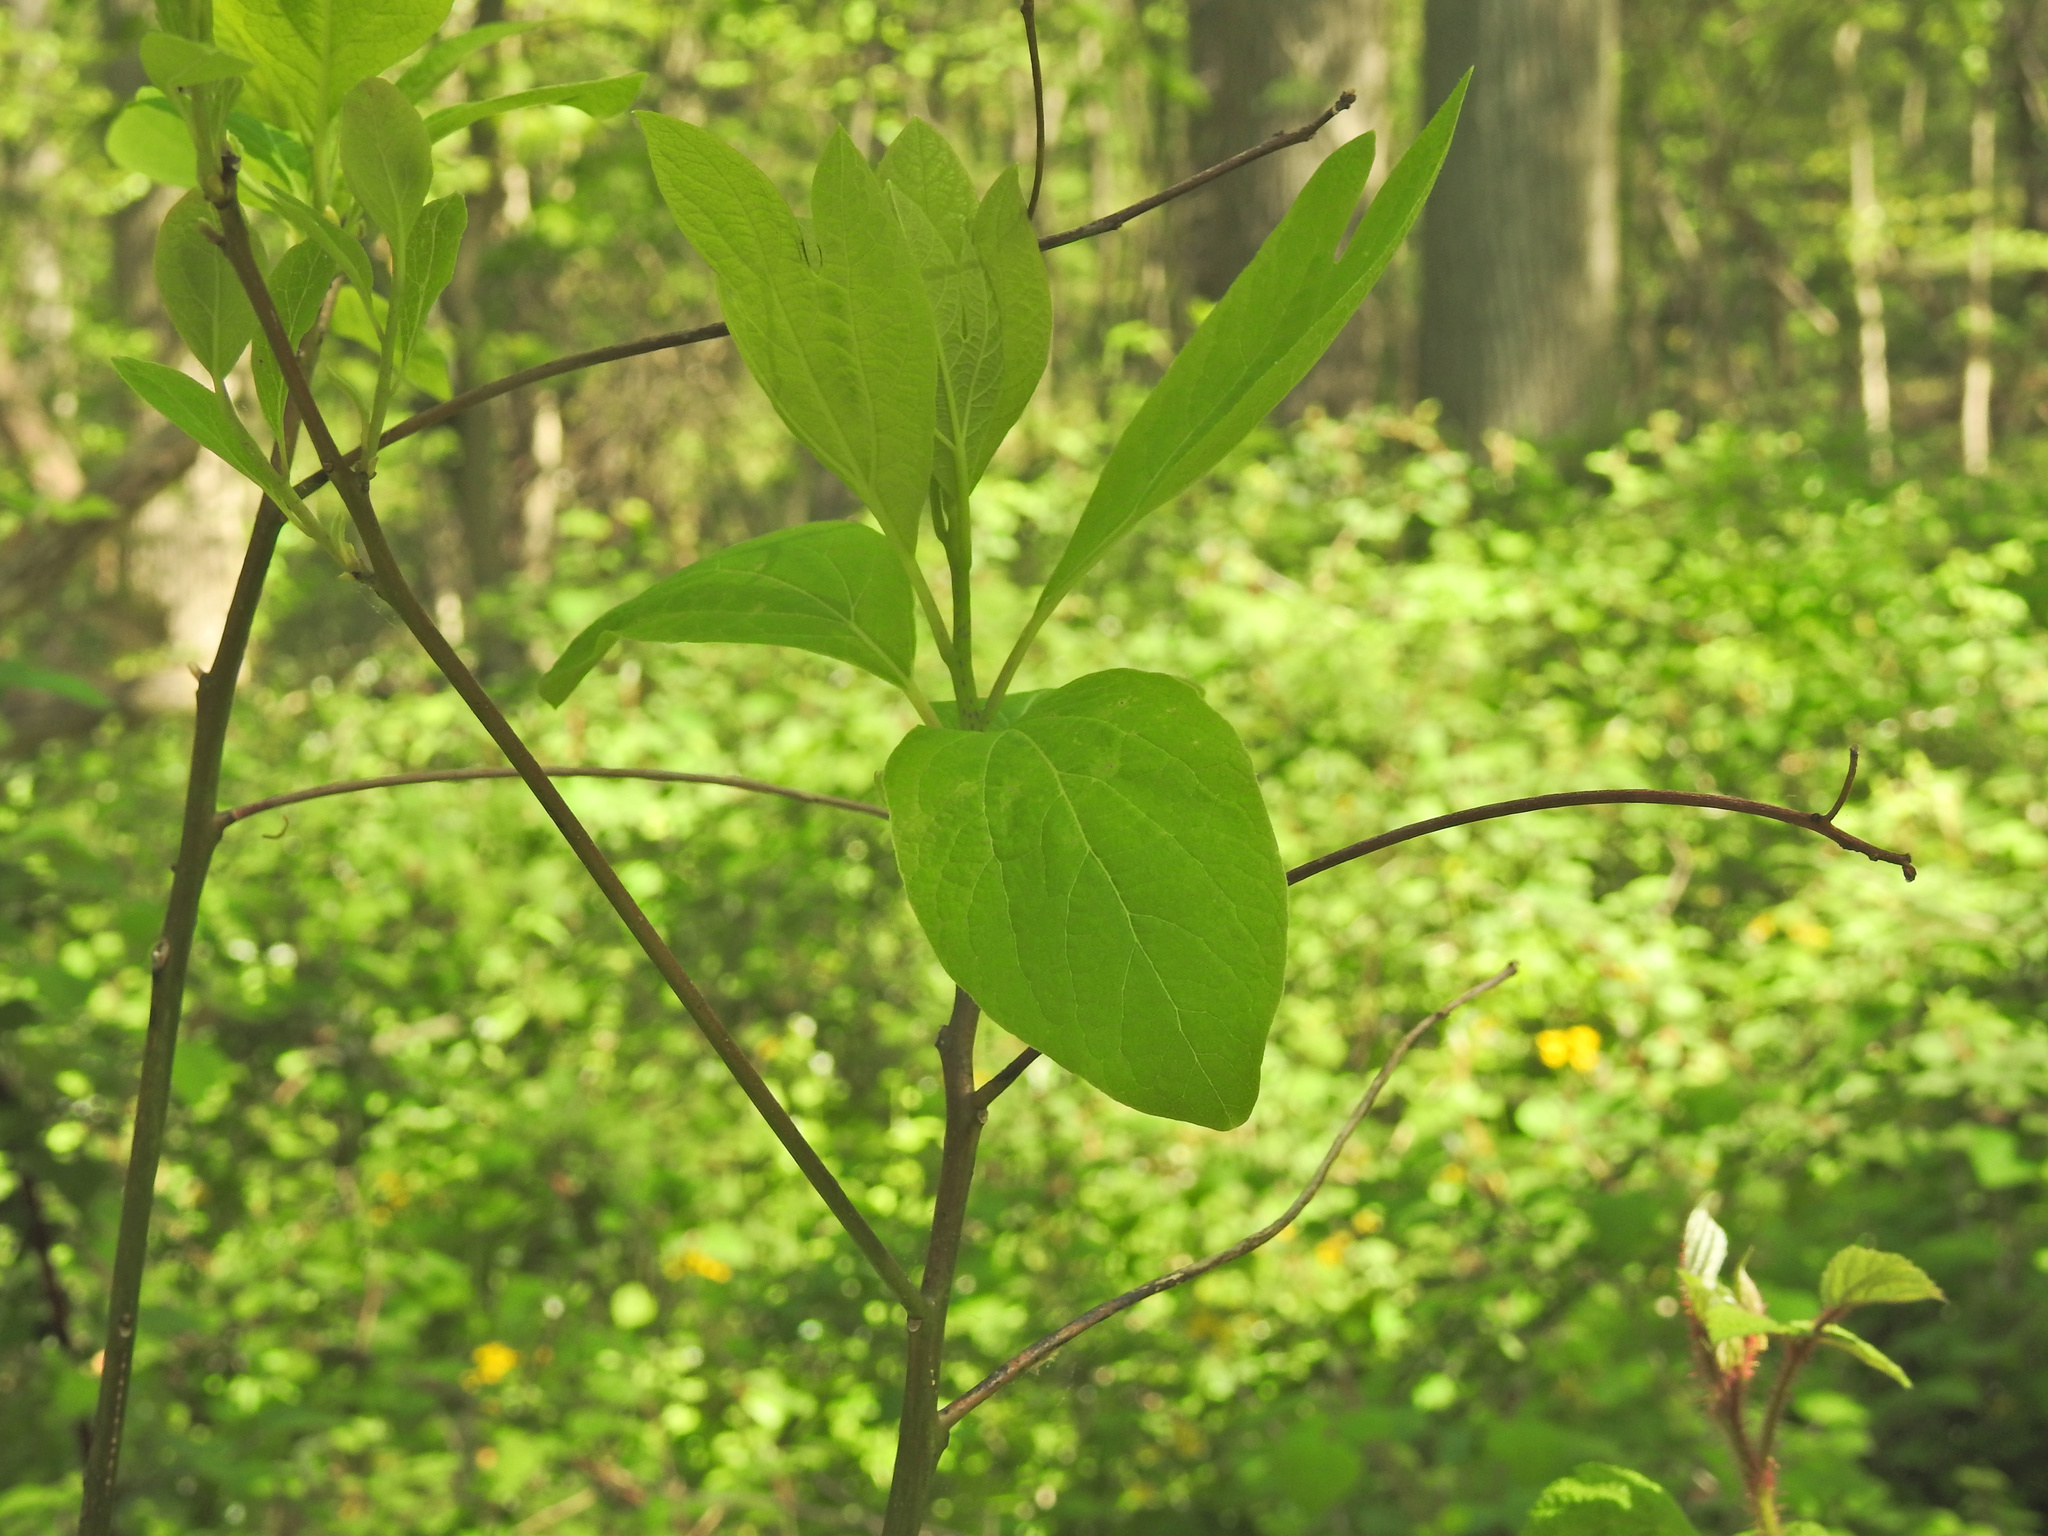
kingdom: Plantae
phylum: Tracheophyta
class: Magnoliopsida
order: Laurales
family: Lauraceae
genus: Sassafras
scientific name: Sassafras albidum
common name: Sassafras
